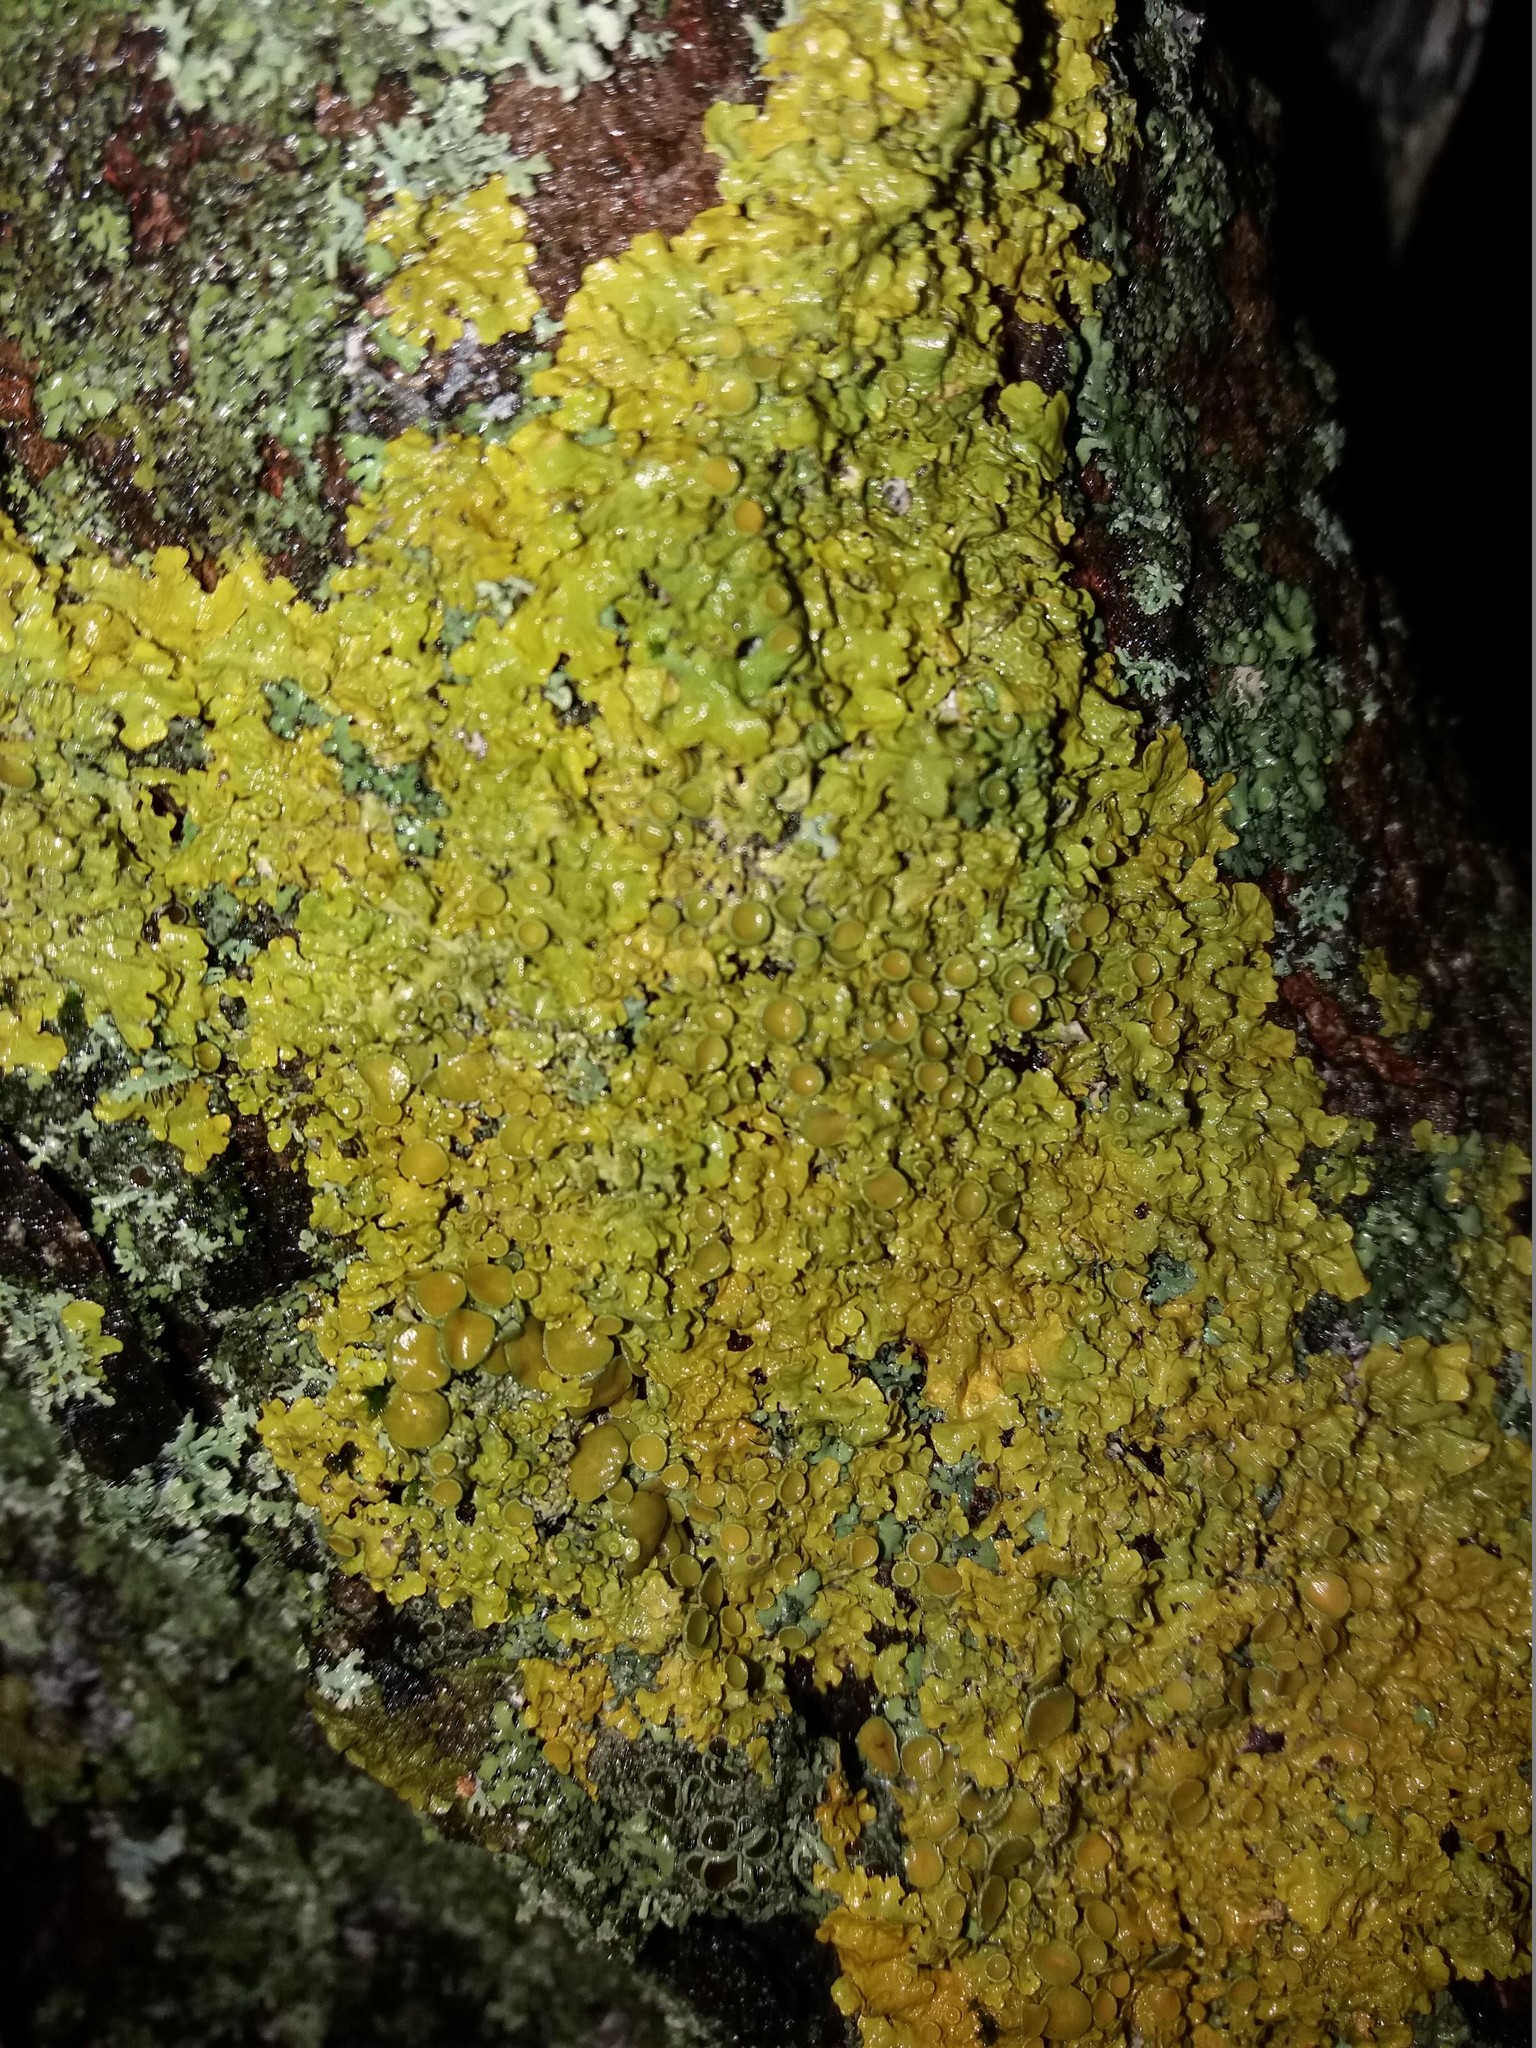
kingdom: Fungi
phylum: Ascomycota
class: Lecanoromycetes
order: Teloschistales
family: Teloschistaceae
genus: Xanthoria
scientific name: Xanthoria parietina
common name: Common orange lichen
